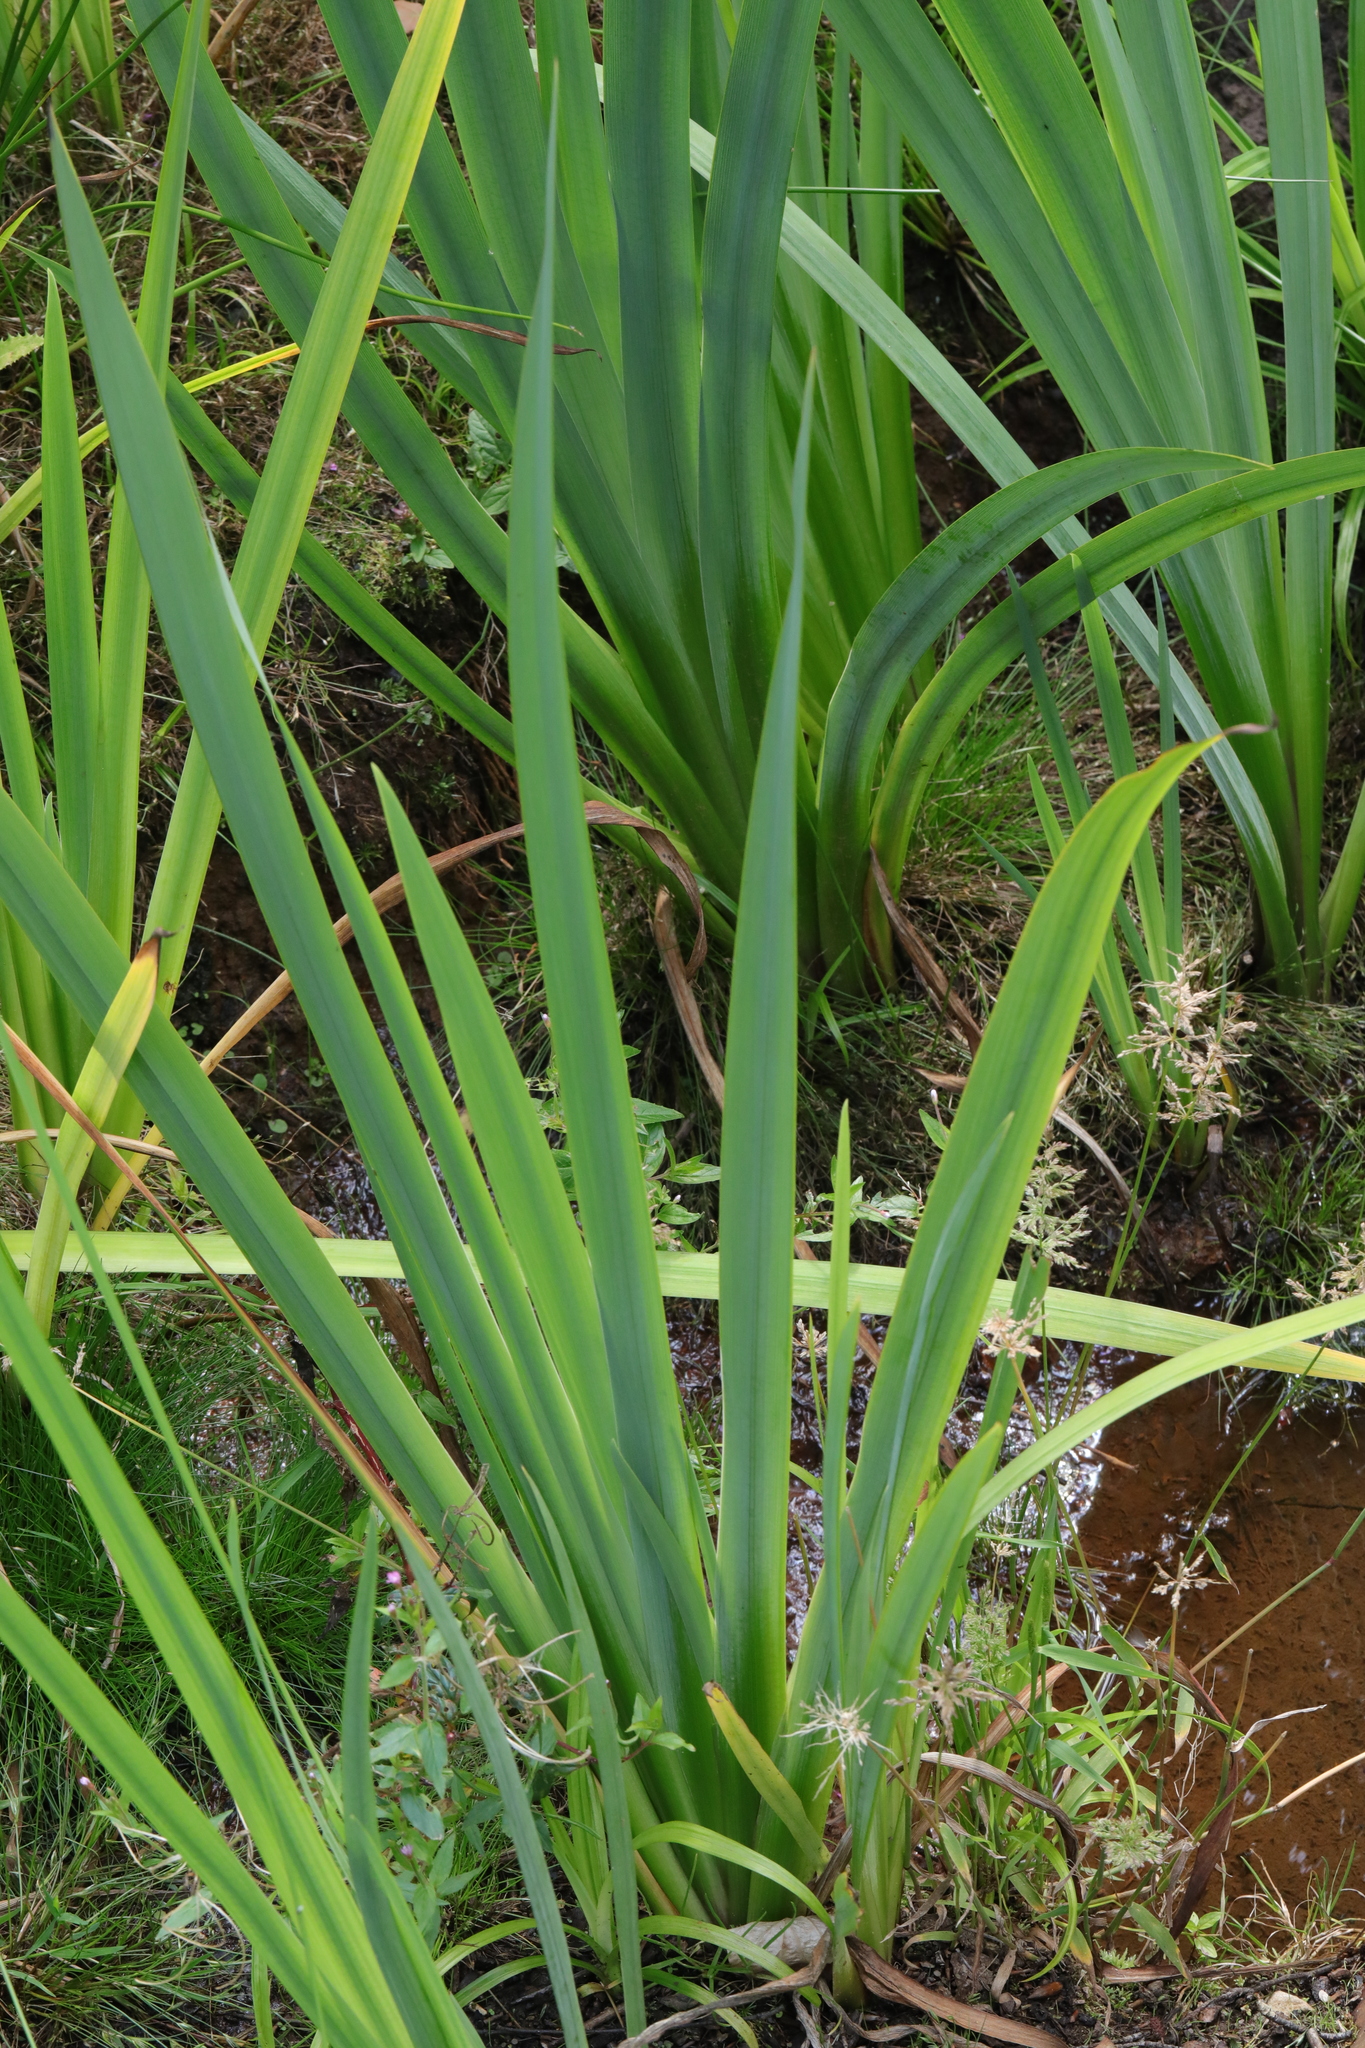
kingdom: Plantae
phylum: Tracheophyta
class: Liliopsida
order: Asparagales
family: Iridaceae
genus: Iris
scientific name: Iris pseudacorus
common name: Yellow flag
